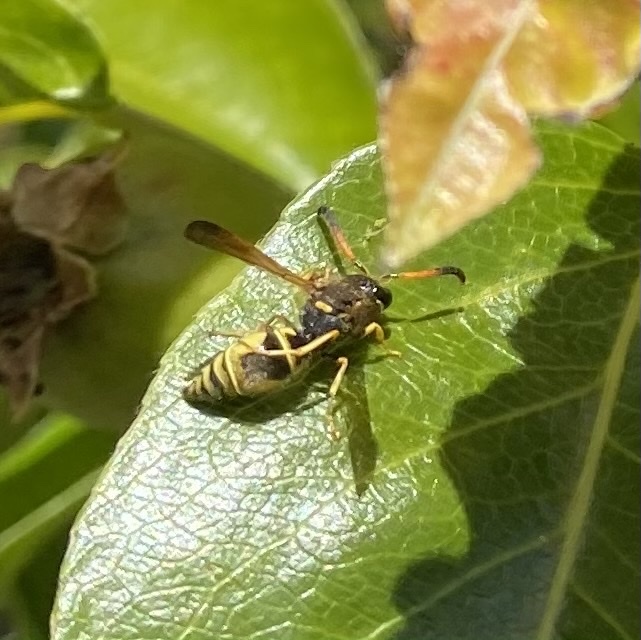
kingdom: Animalia
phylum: Arthropoda
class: Insecta
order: Hymenoptera
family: Vespidae
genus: Ancistrocerus
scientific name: Ancistrocerus tuberculocephalus
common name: Vespid wasp
